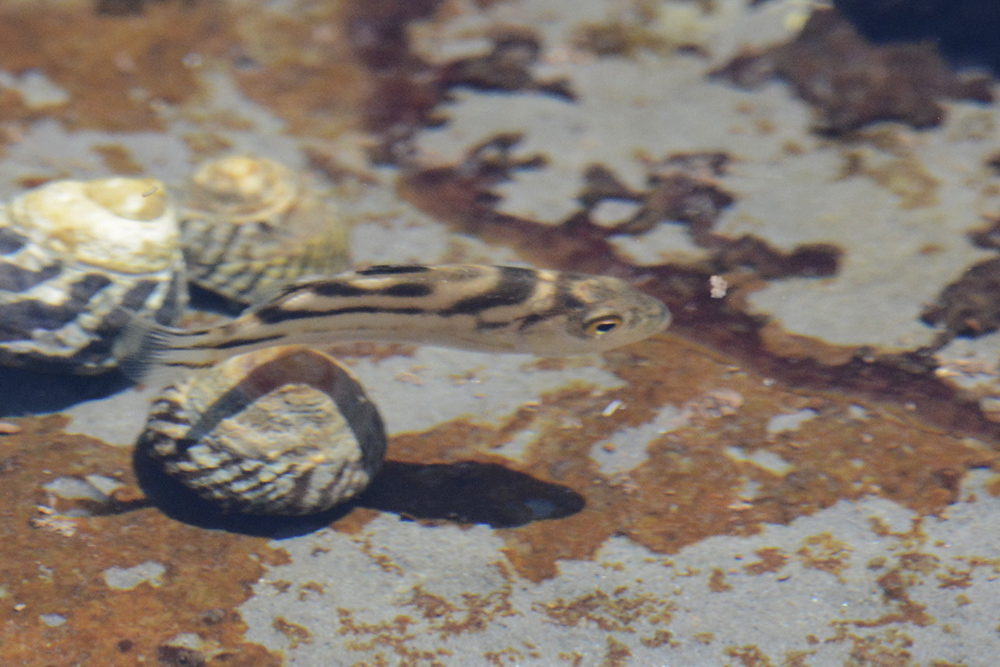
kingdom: Animalia
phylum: Chordata
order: Perciformes
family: Terapontidae
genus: Terapon
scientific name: Terapon jarbua
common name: Jarbua terapon
